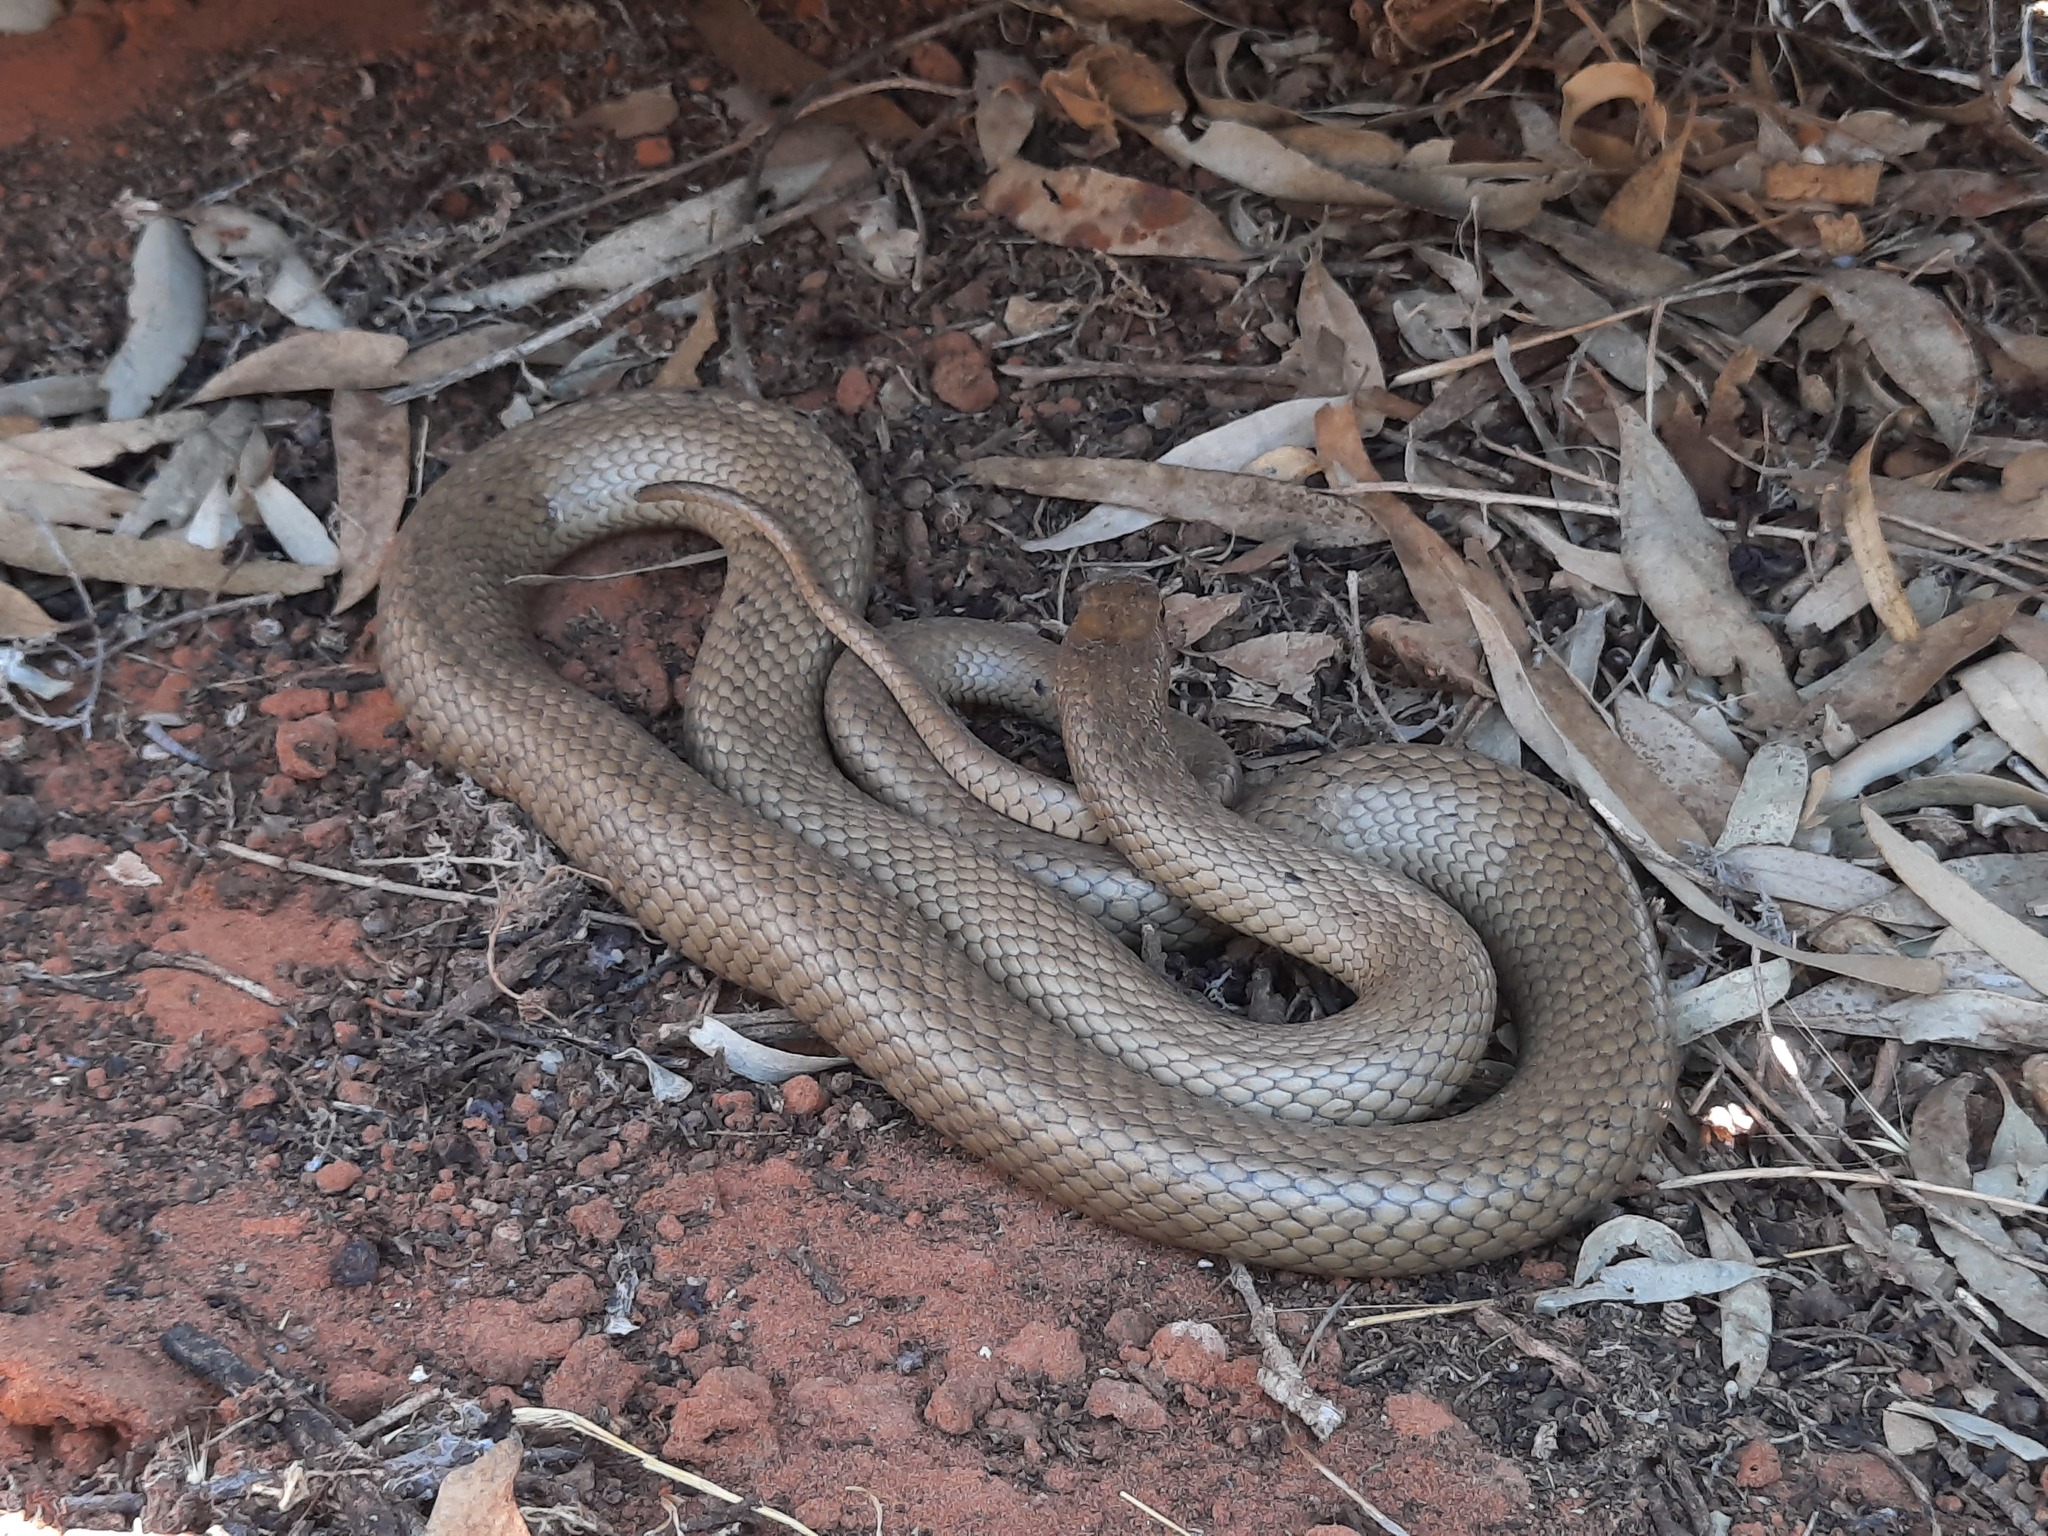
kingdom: Animalia
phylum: Chordata
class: Squamata
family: Elapidae
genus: Pseudonaja
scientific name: Pseudonaja textilis
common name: Eastern brown snake
